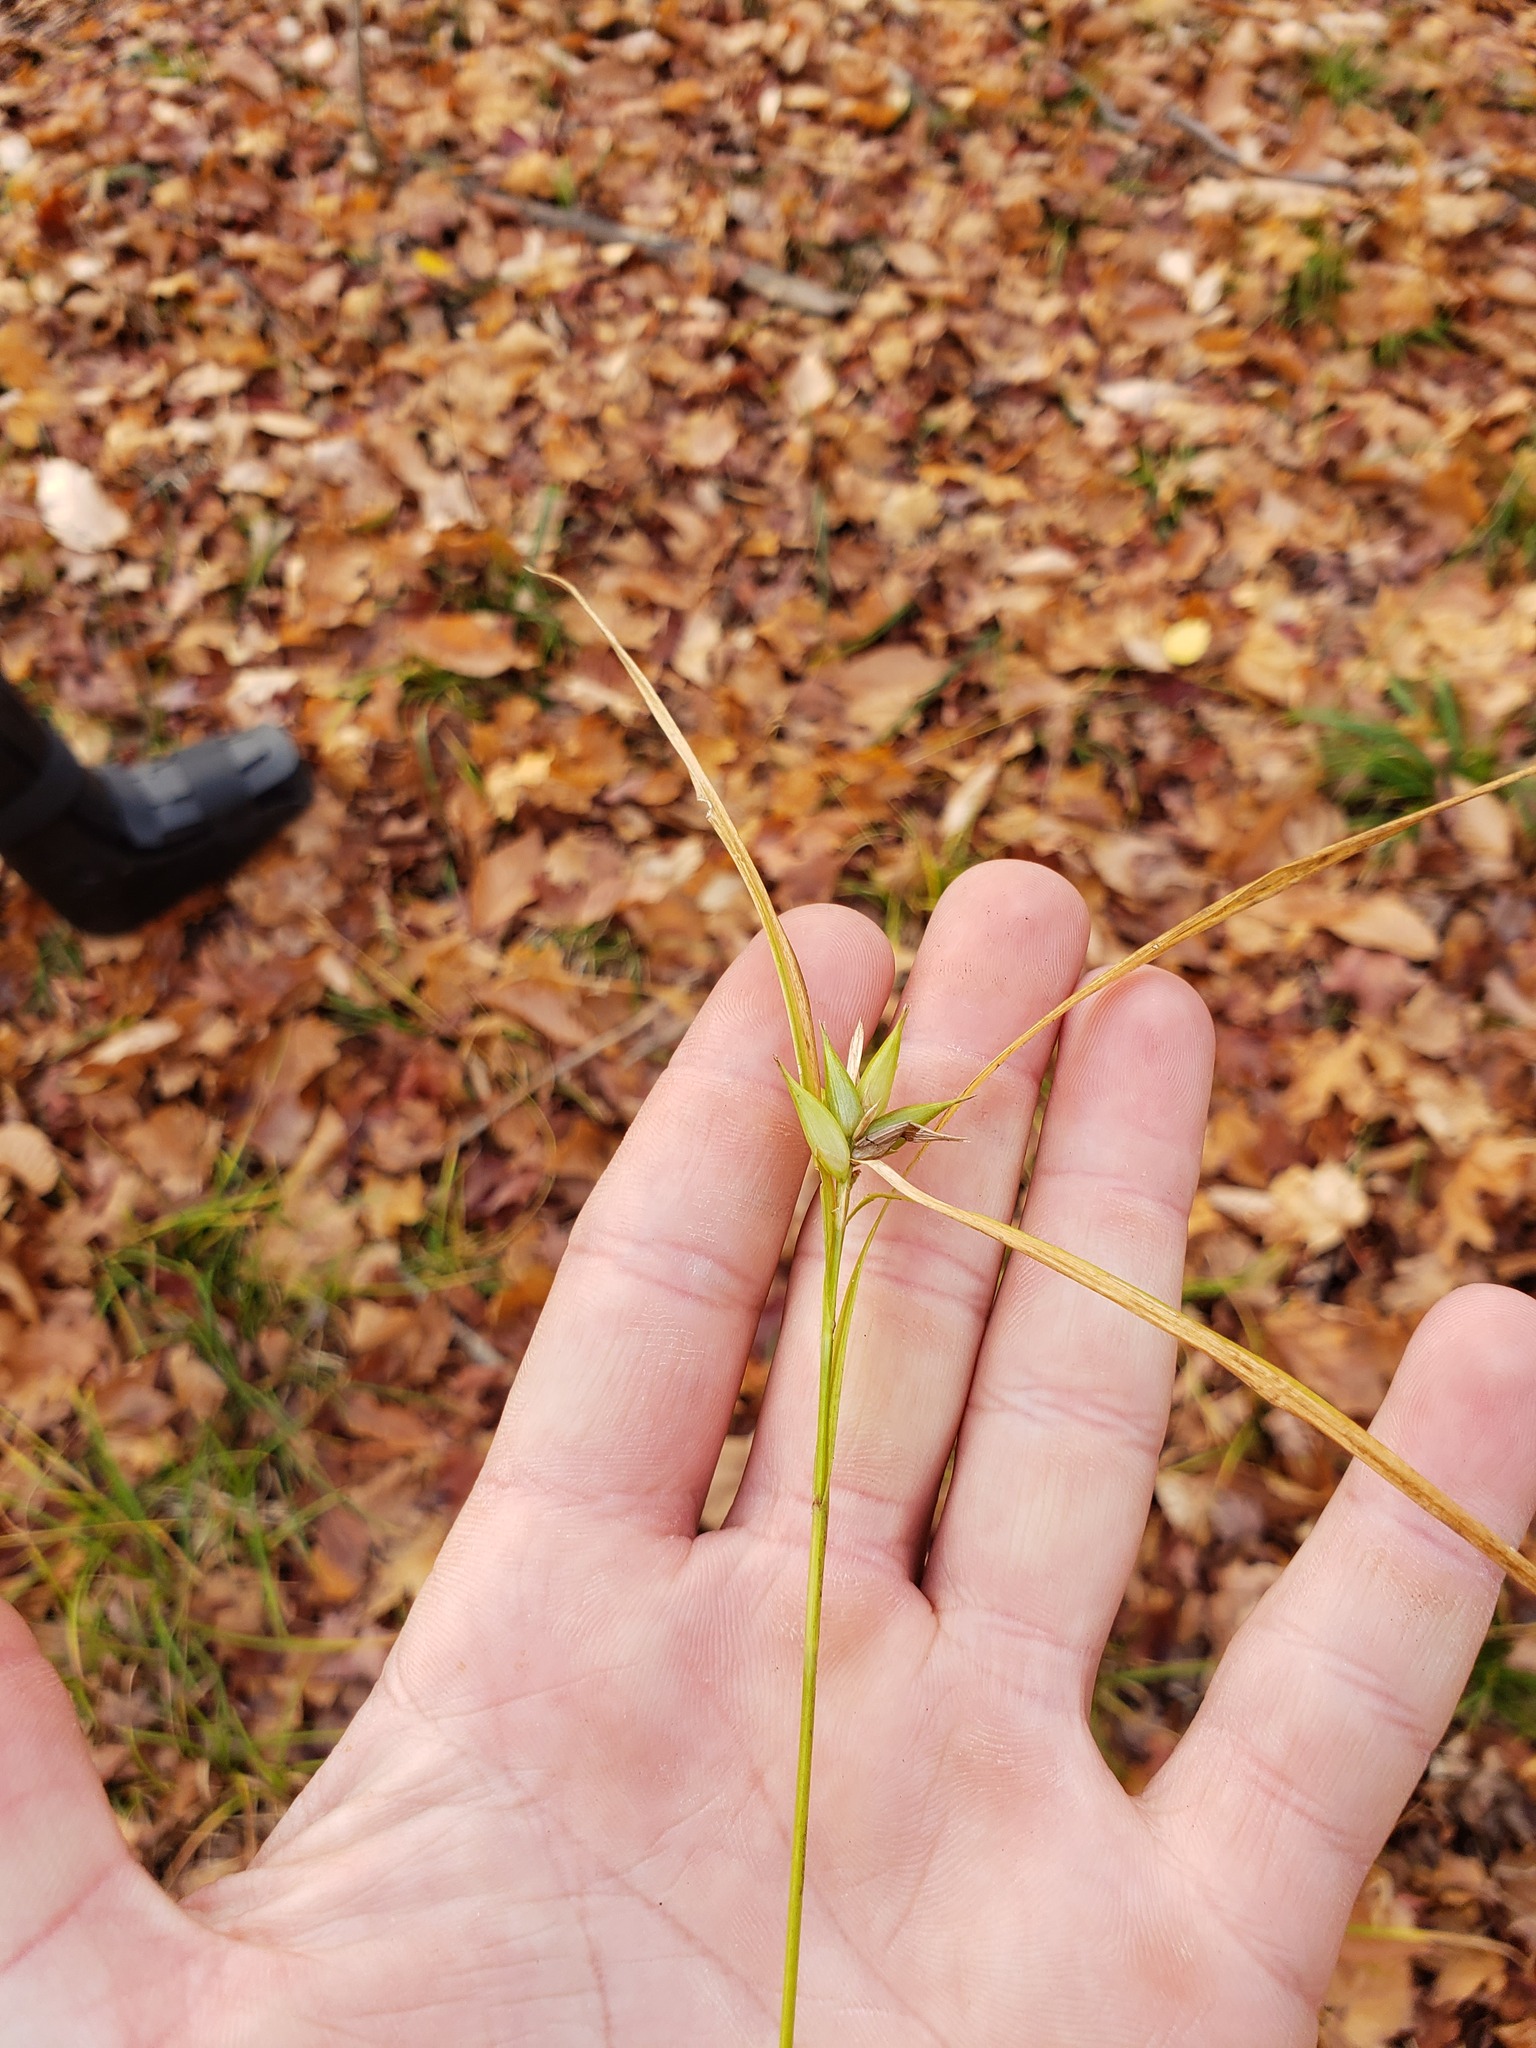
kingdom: Plantae
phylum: Tracheophyta
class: Liliopsida
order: Poales
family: Cyperaceae
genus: Carex
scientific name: Carex intumescens
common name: Greater bladder sedge
